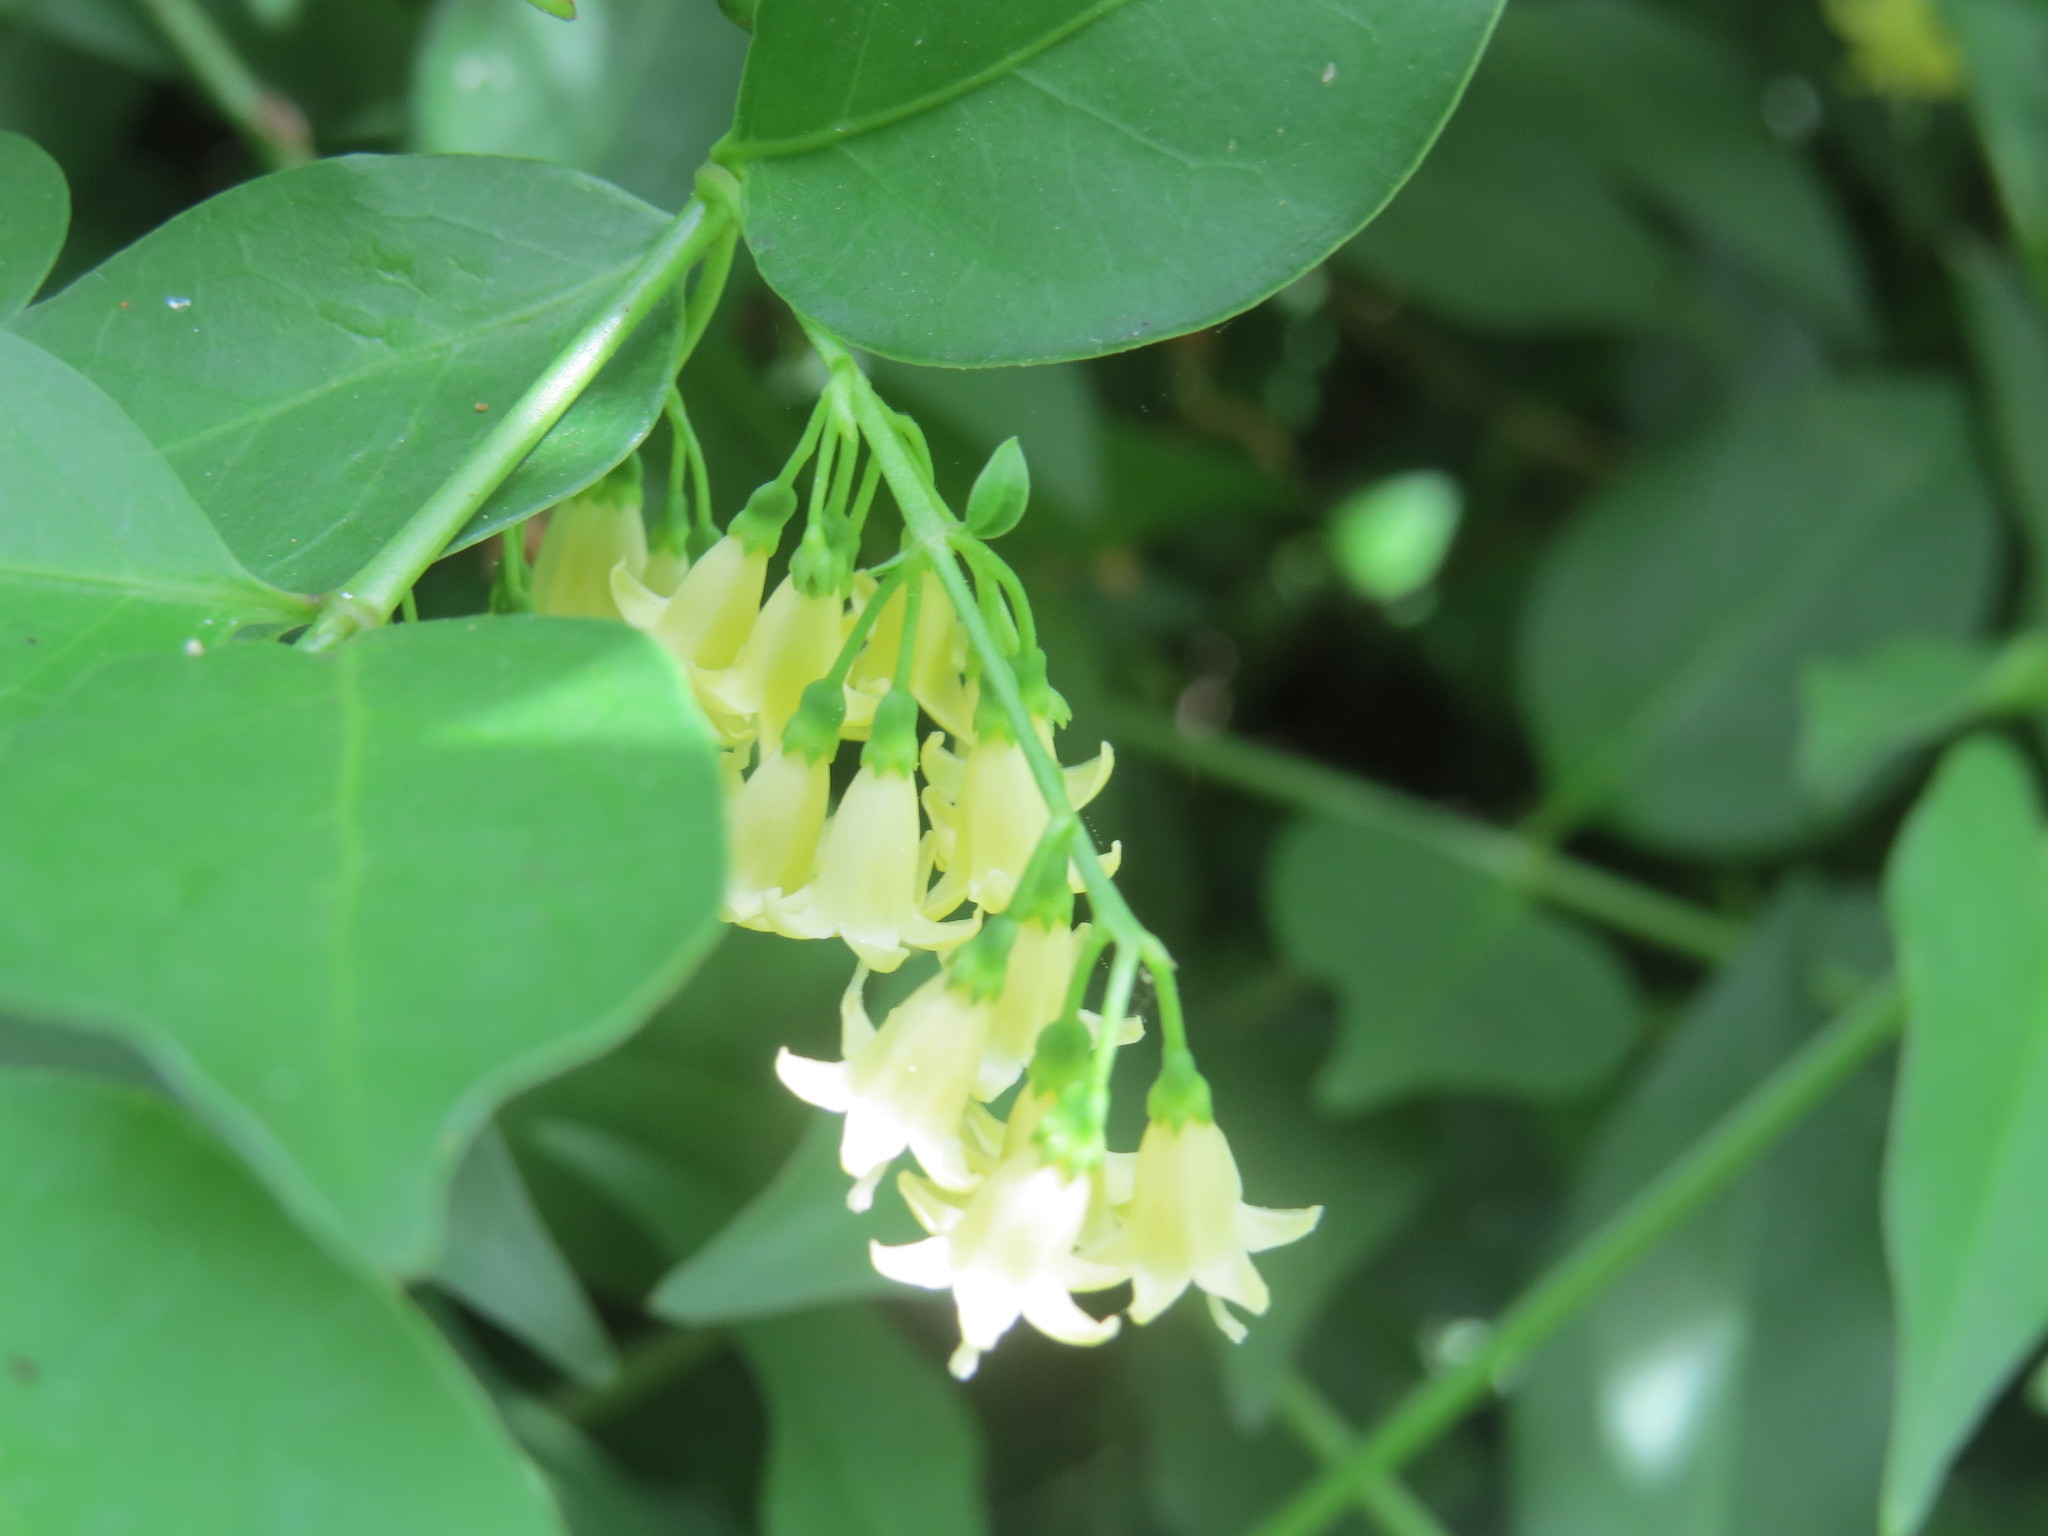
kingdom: Plantae
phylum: Tracheophyta
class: Magnoliopsida
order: Gentianales
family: Rubiaceae
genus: Chiococca
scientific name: Chiococca alba
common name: Snowberry
